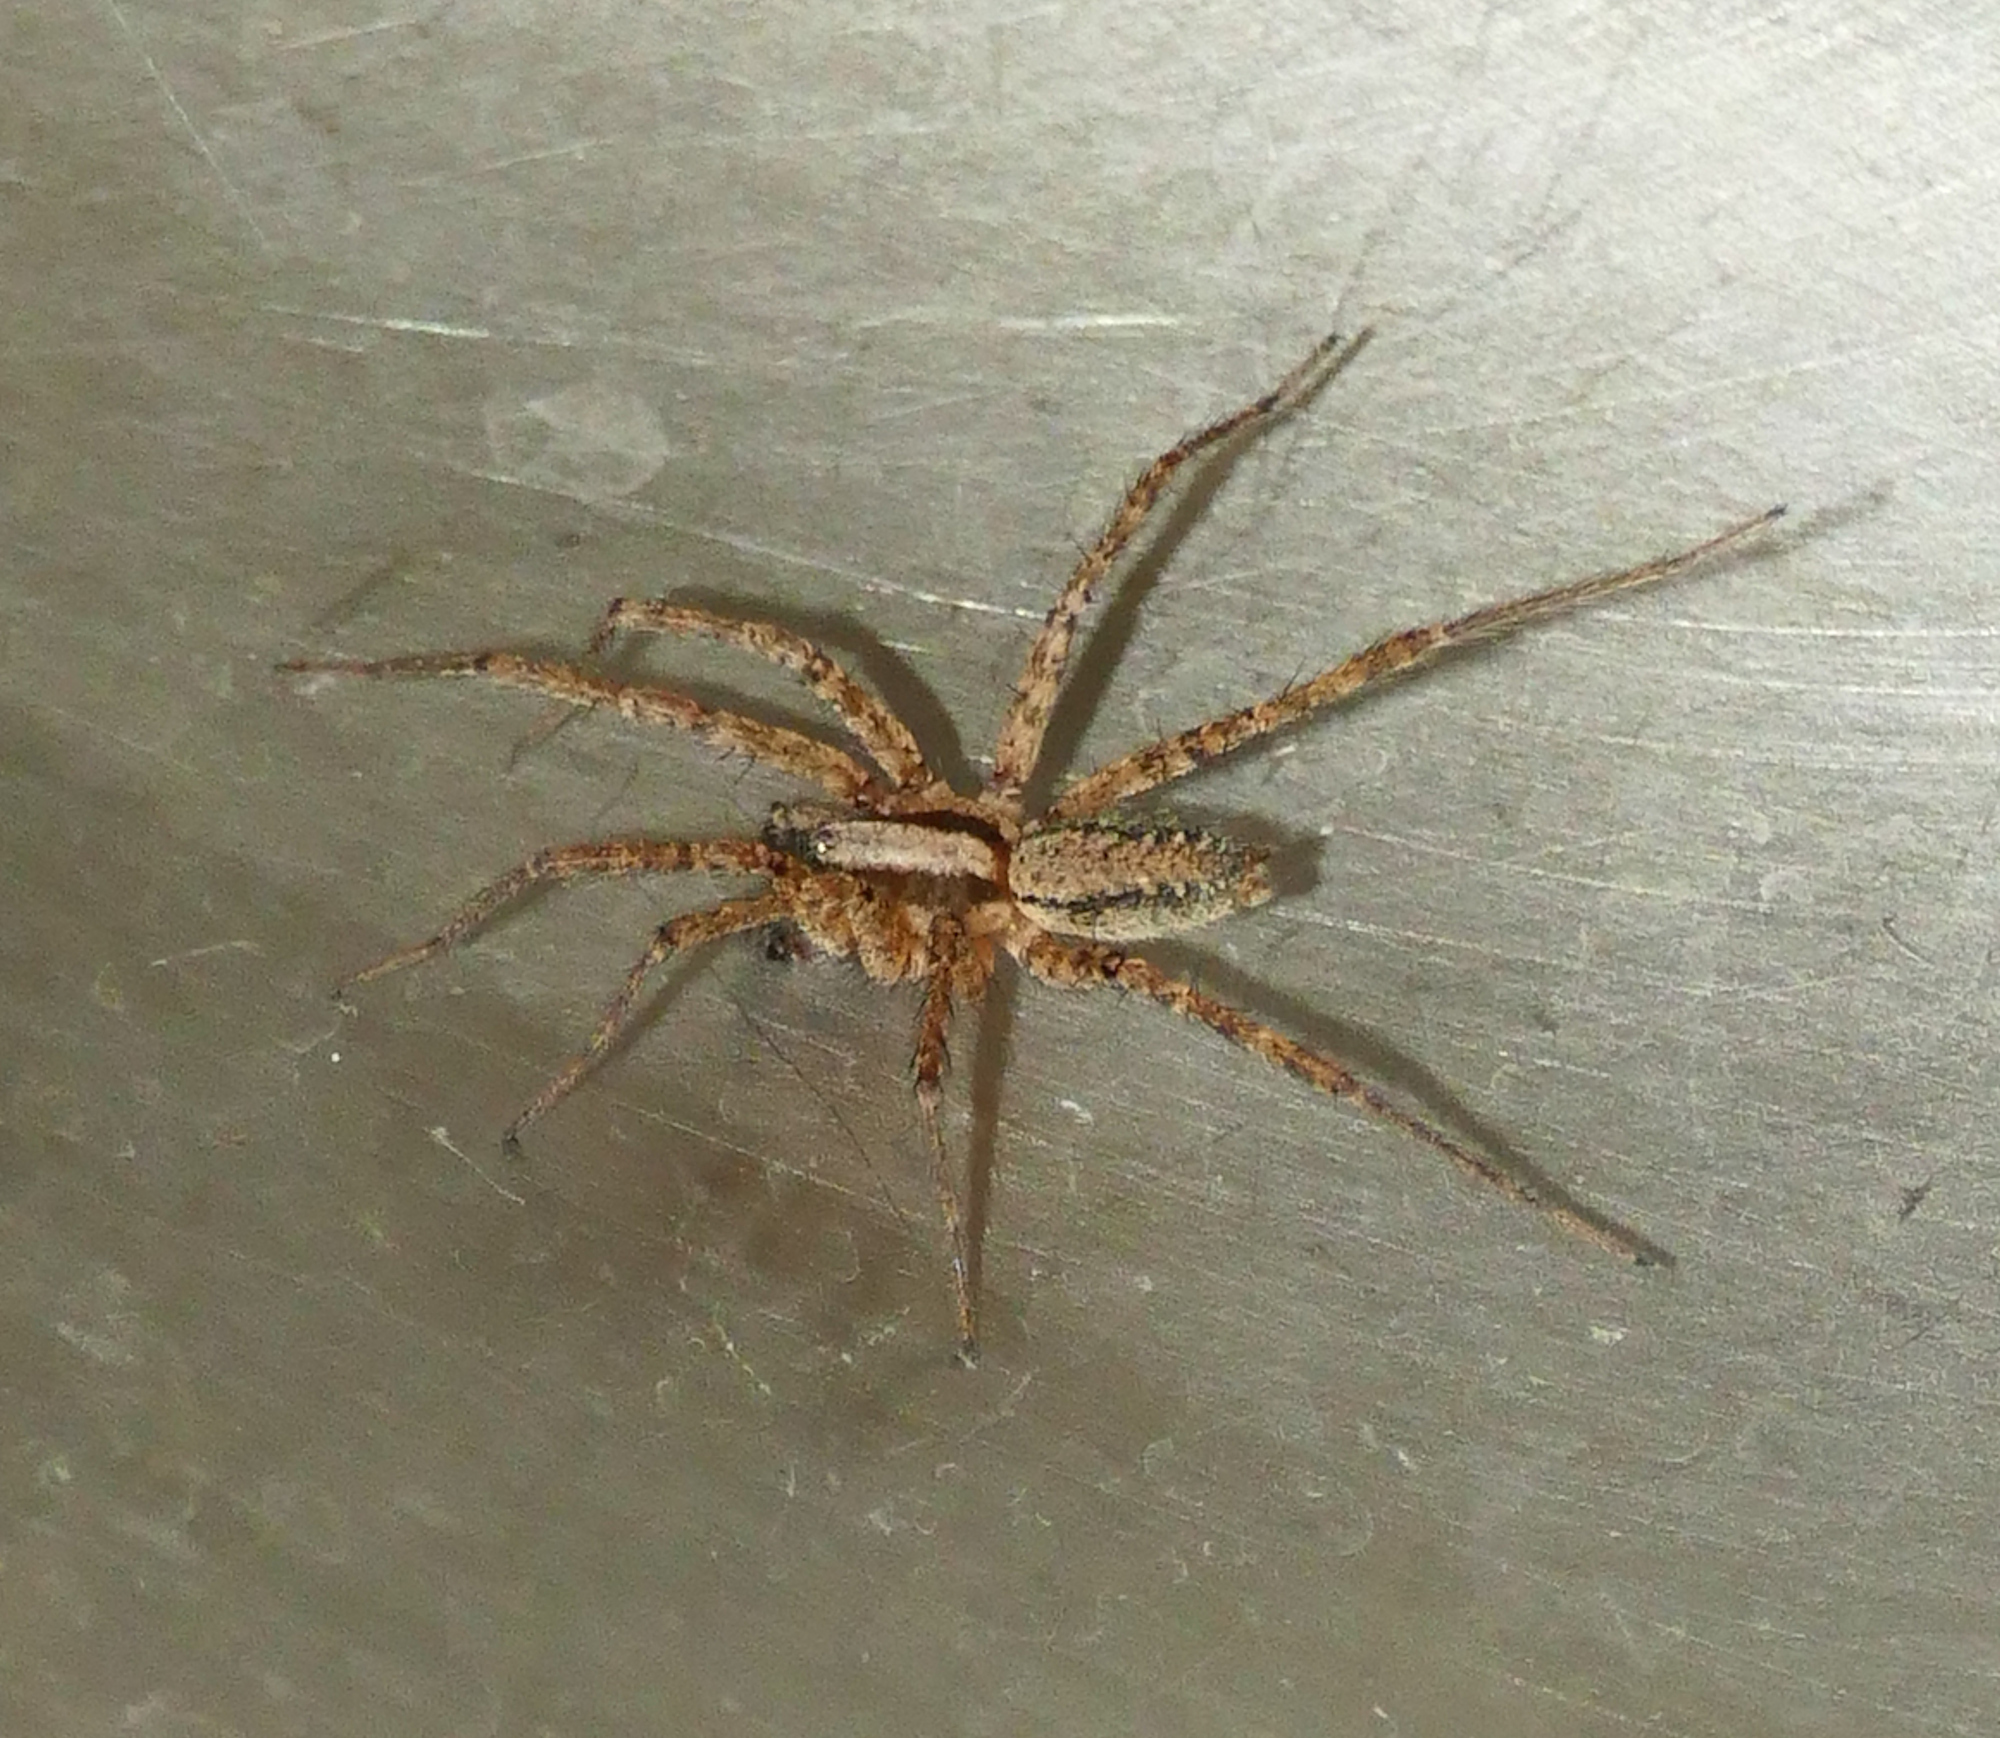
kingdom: Animalia
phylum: Arthropoda
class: Arachnida
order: Araneae
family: Agelenidae
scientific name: Agelenidae
